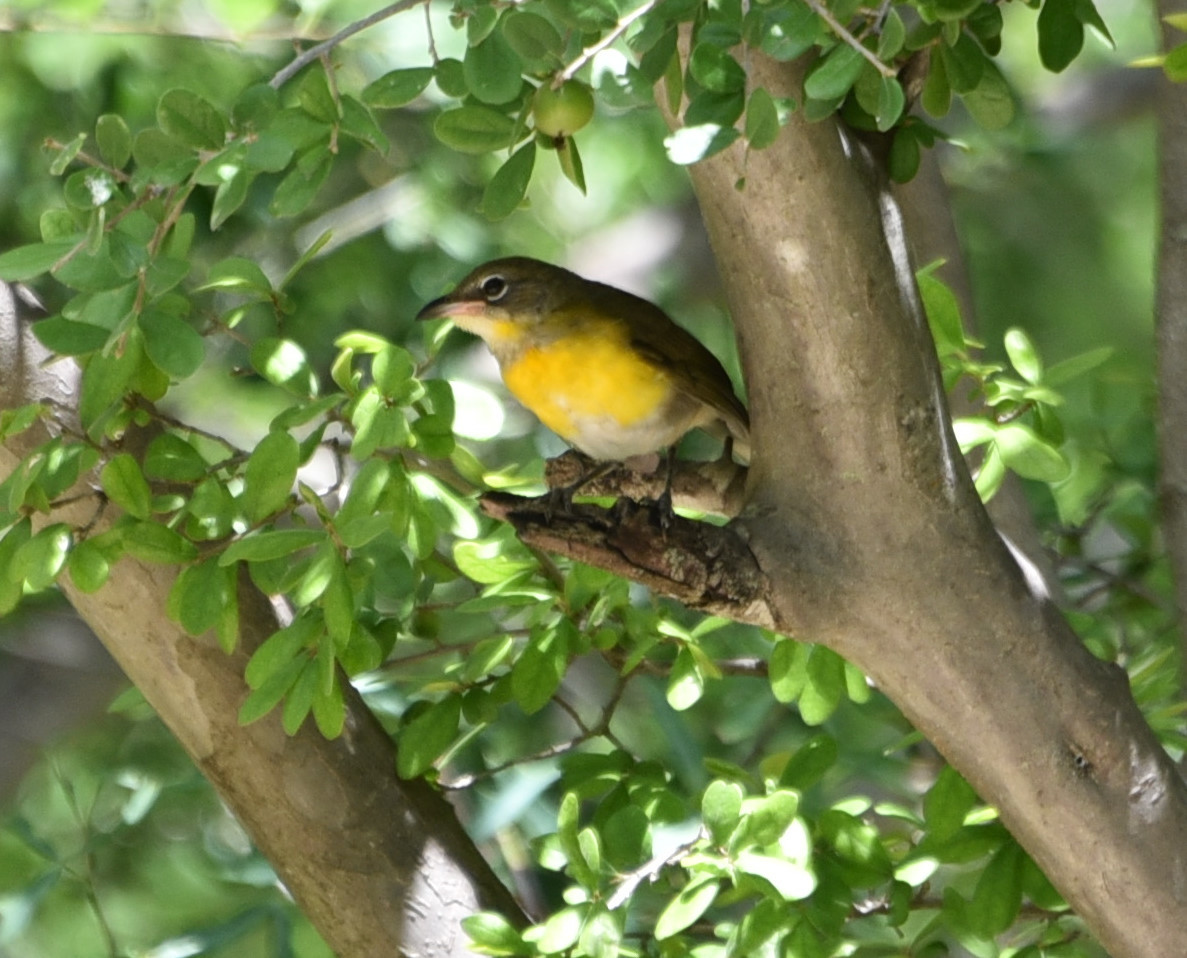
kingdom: Animalia
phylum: Chordata
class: Aves
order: Passeriformes
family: Parulidae
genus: Icteria
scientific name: Icteria virens
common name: Yellow-breasted chat
